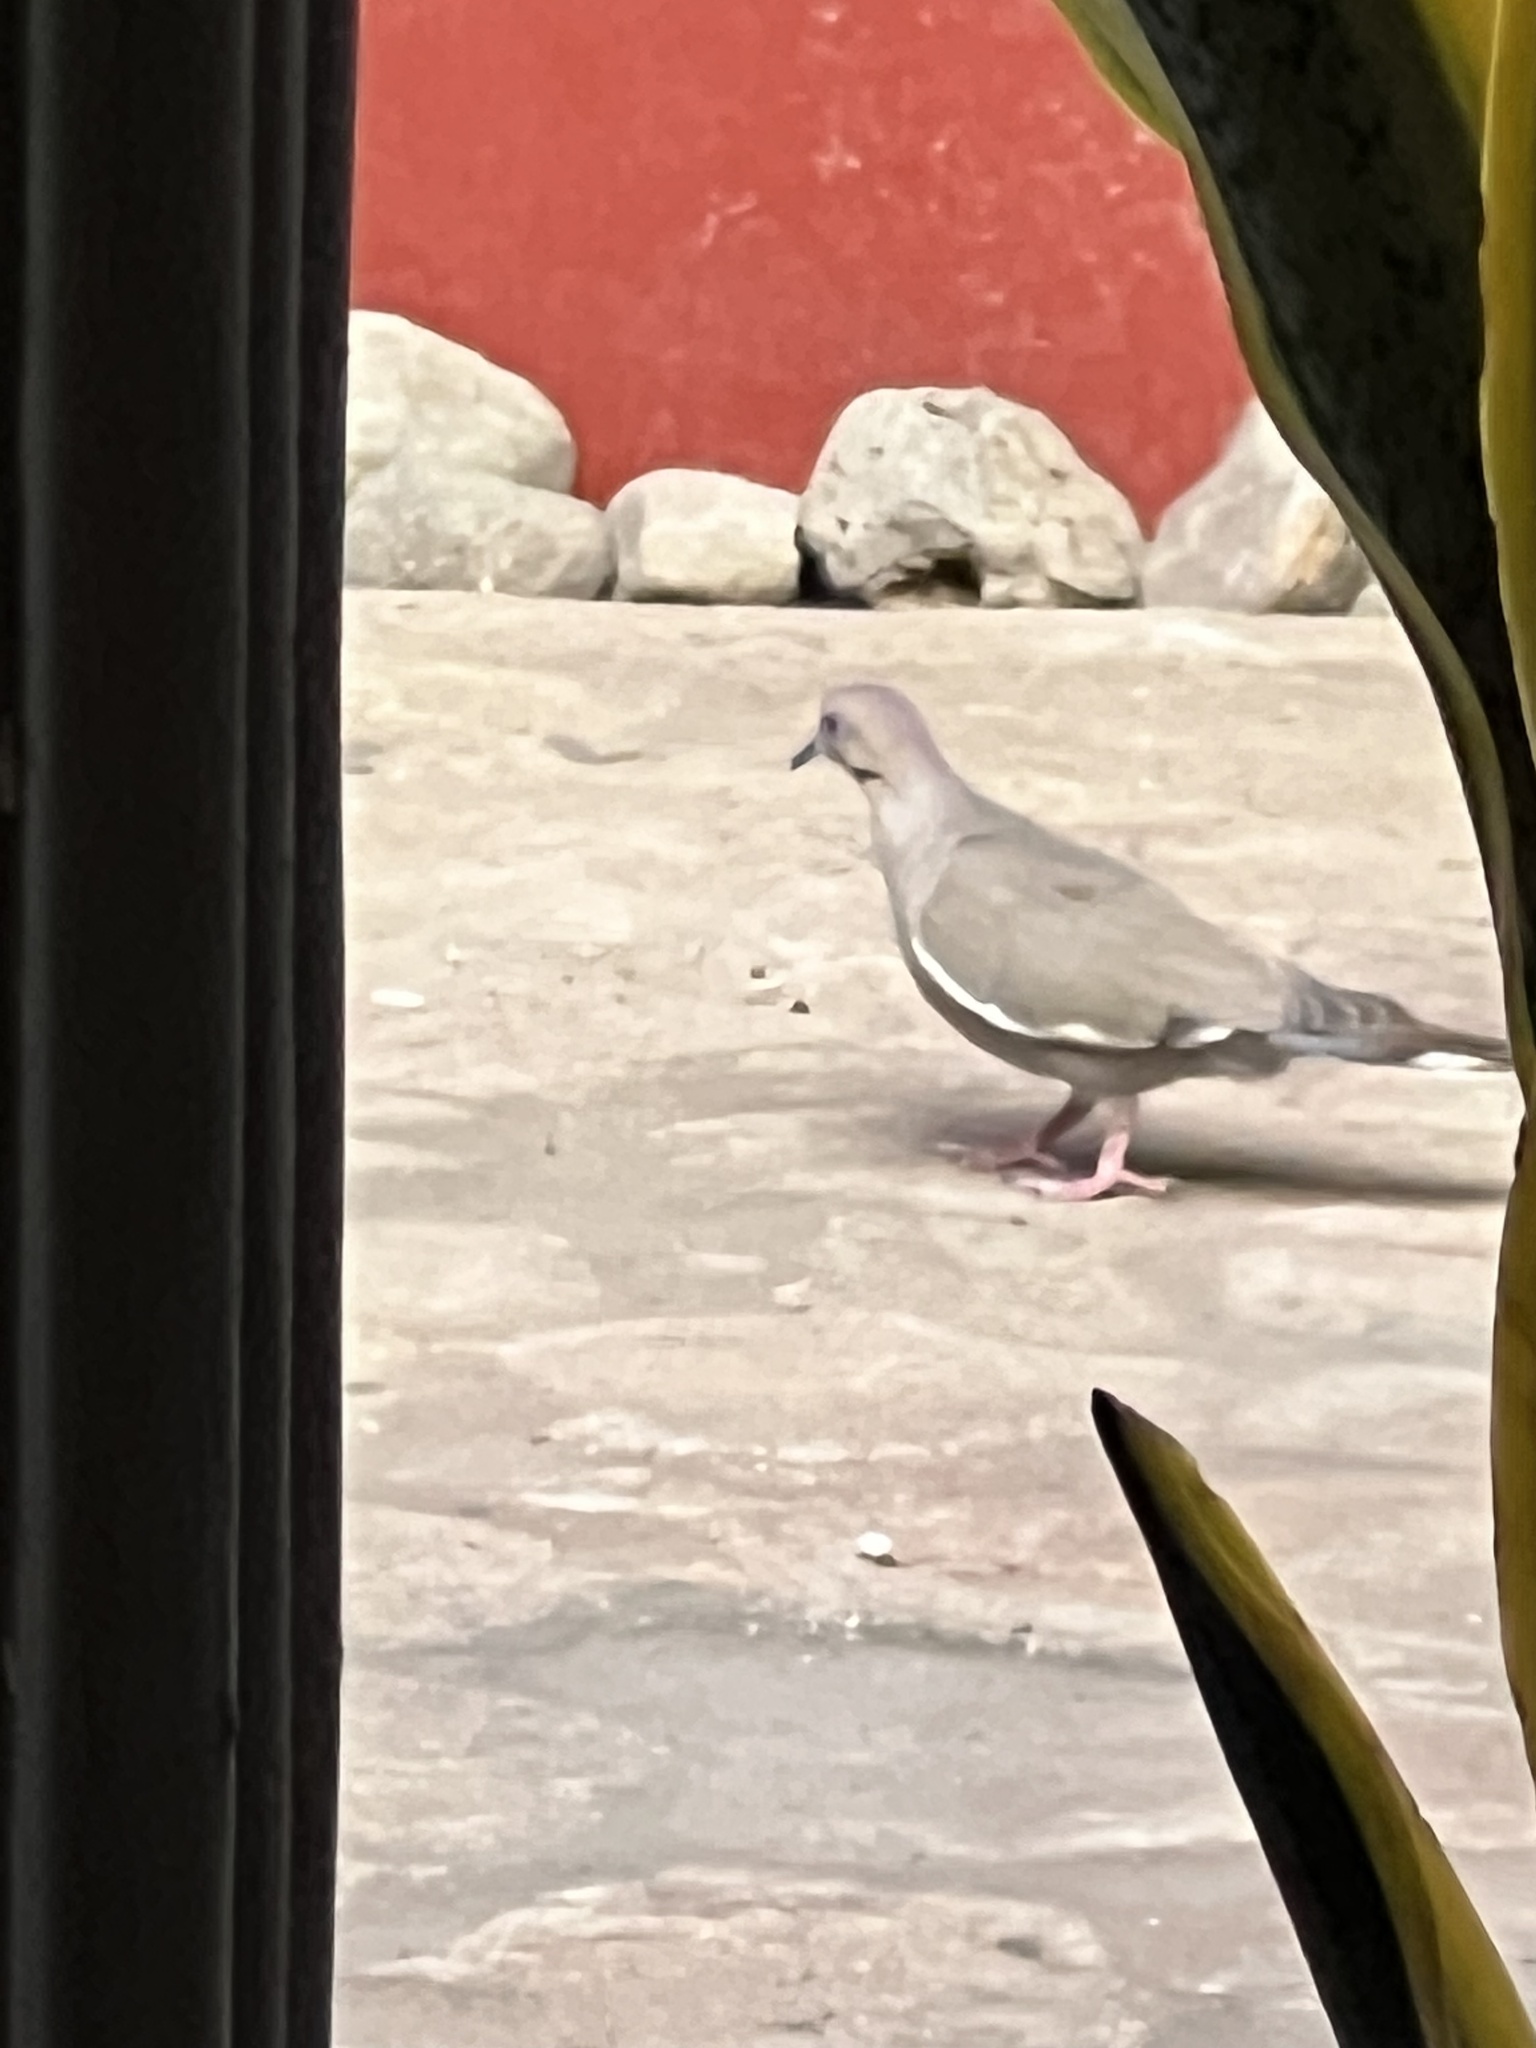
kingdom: Animalia
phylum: Chordata
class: Aves
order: Columbiformes
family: Columbidae
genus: Zenaida
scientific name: Zenaida asiatica
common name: White-winged dove
